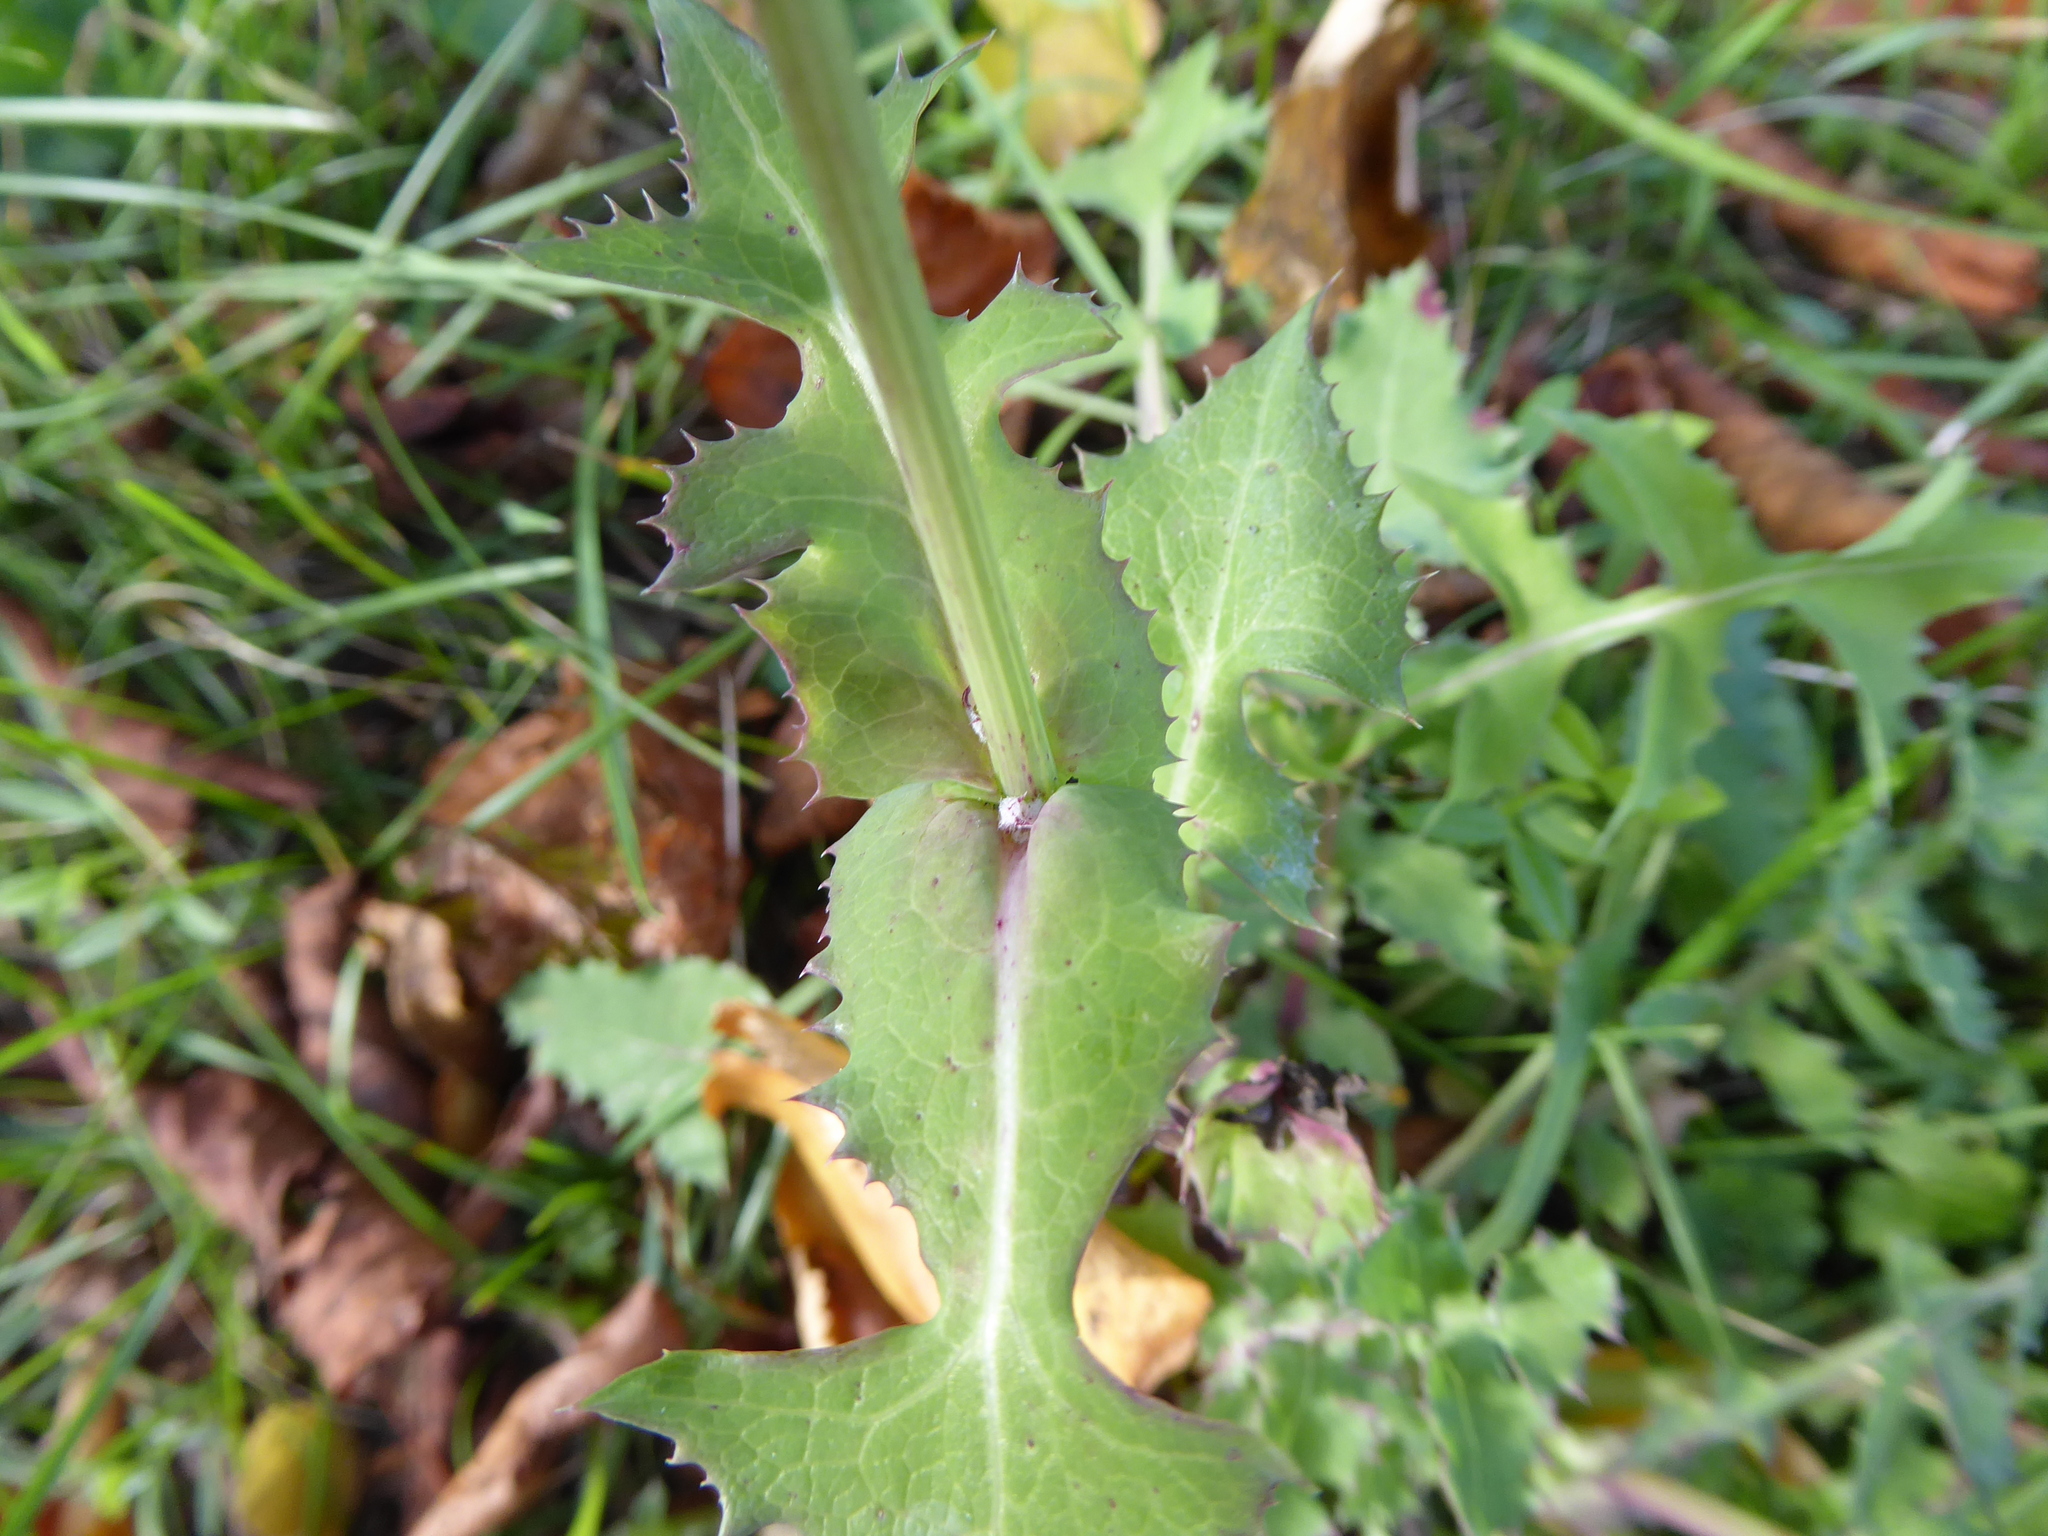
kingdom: Plantae
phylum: Tracheophyta
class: Magnoliopsida
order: Asterales
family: Asteraceae
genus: Sonchus
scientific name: Sonchus oleraceus
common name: Common sowthistle
